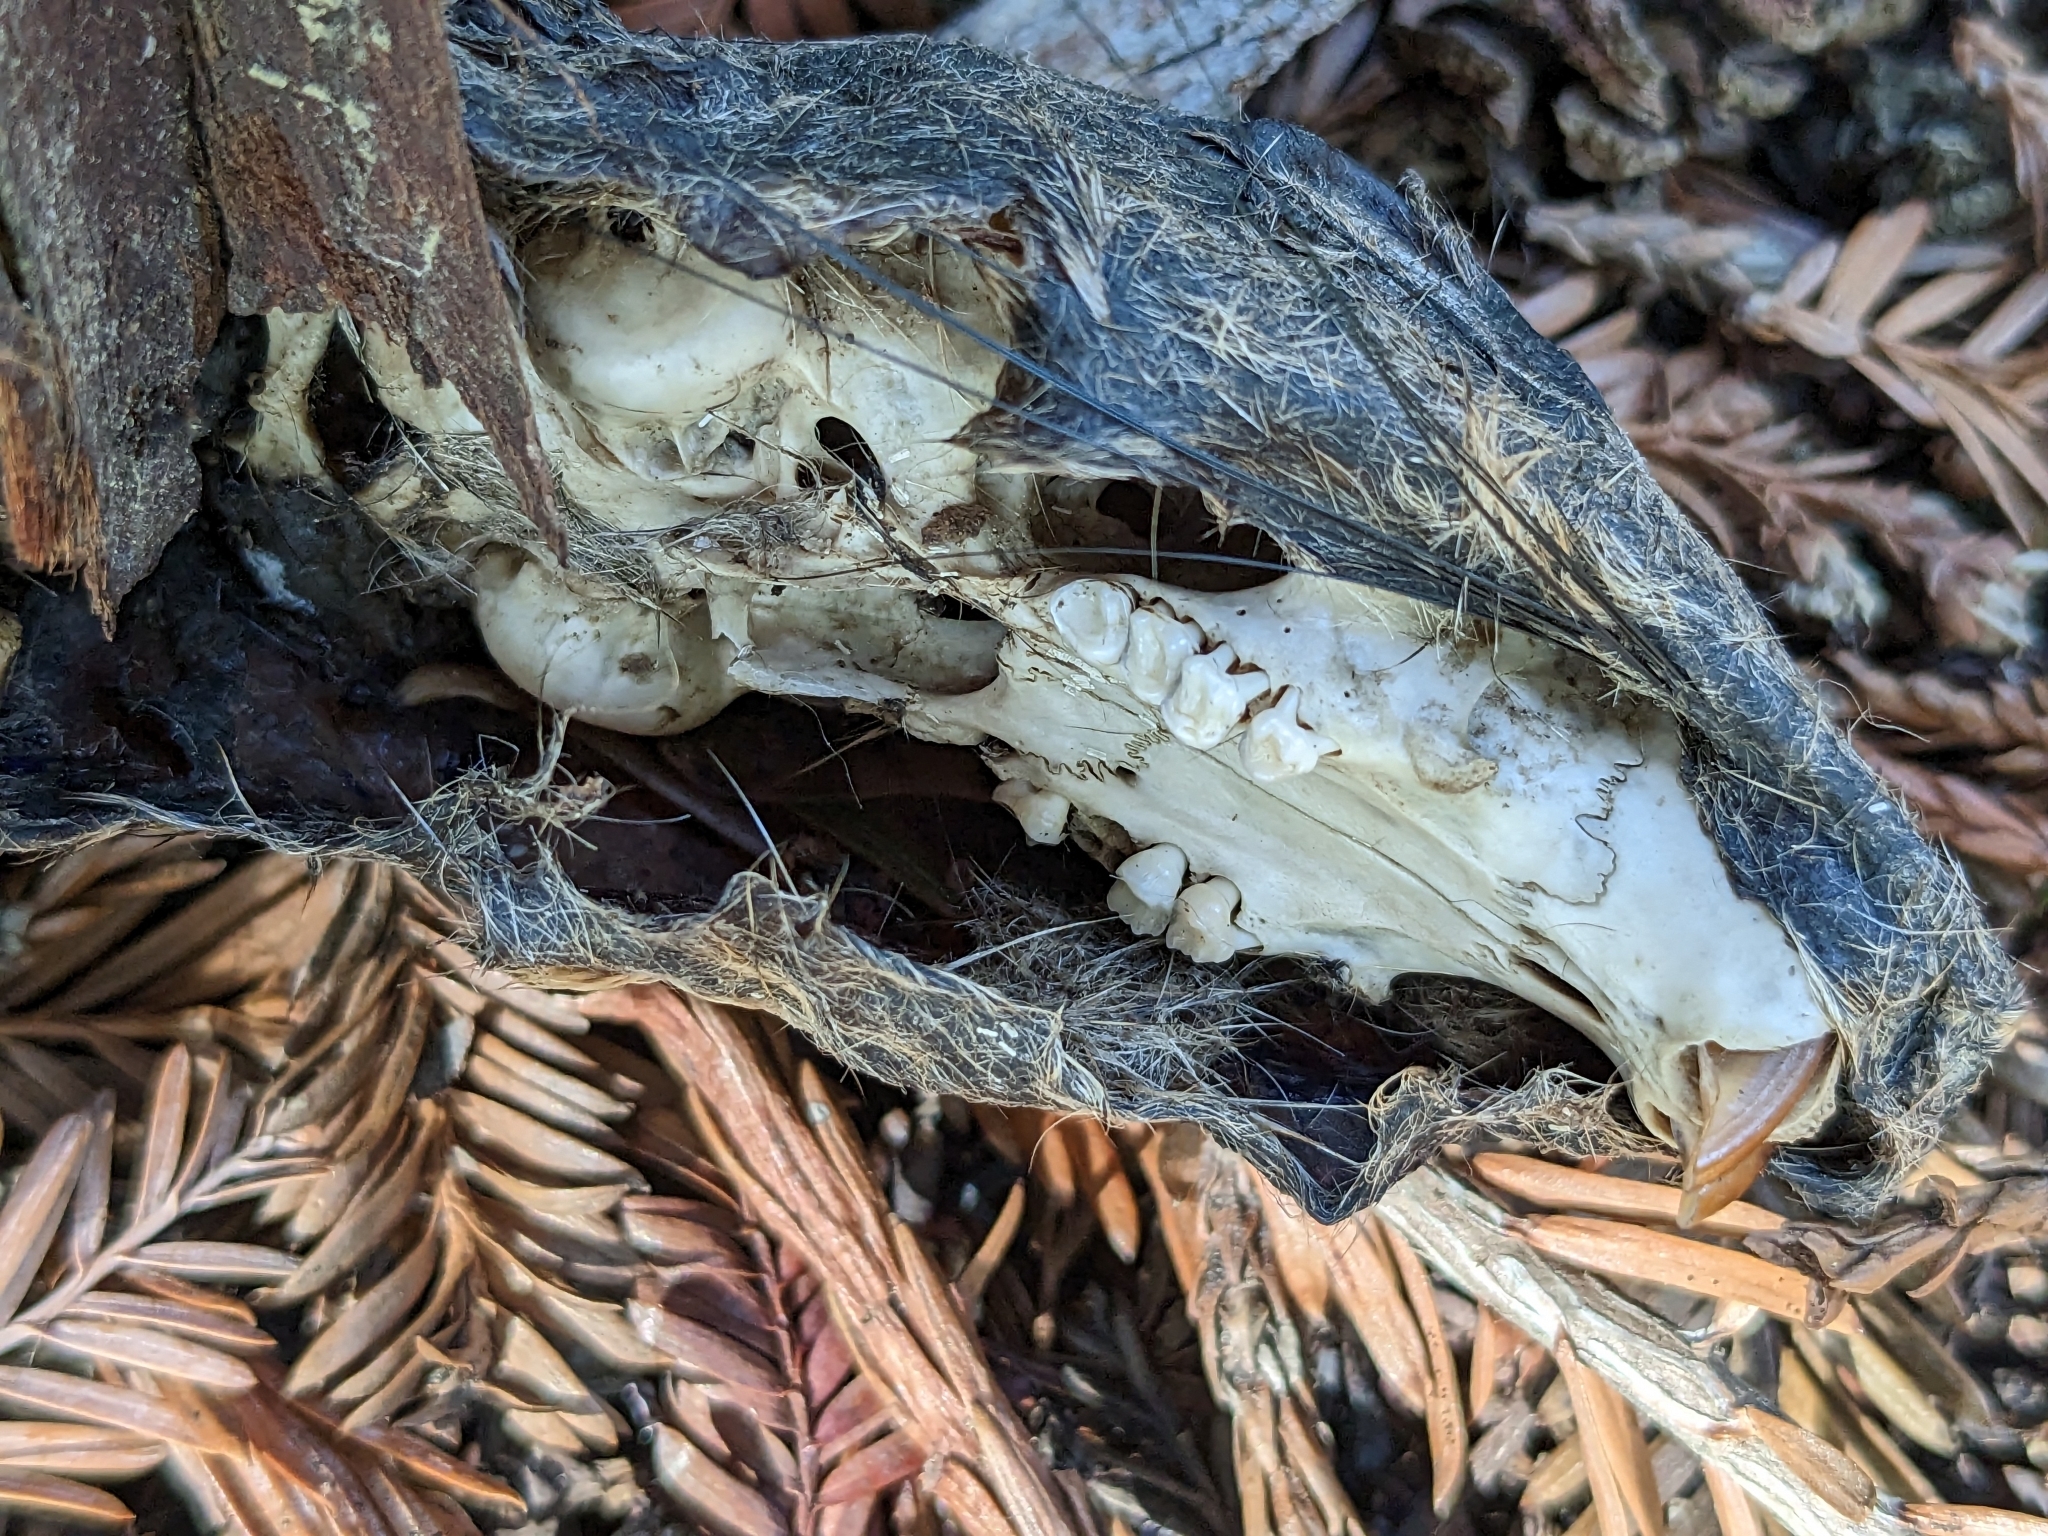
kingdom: Animalia
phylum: Chordata
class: Mammalia
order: Rodentia
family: Sciuridae
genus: Sciurus
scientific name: Sciurus niger
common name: Fox squirrel
